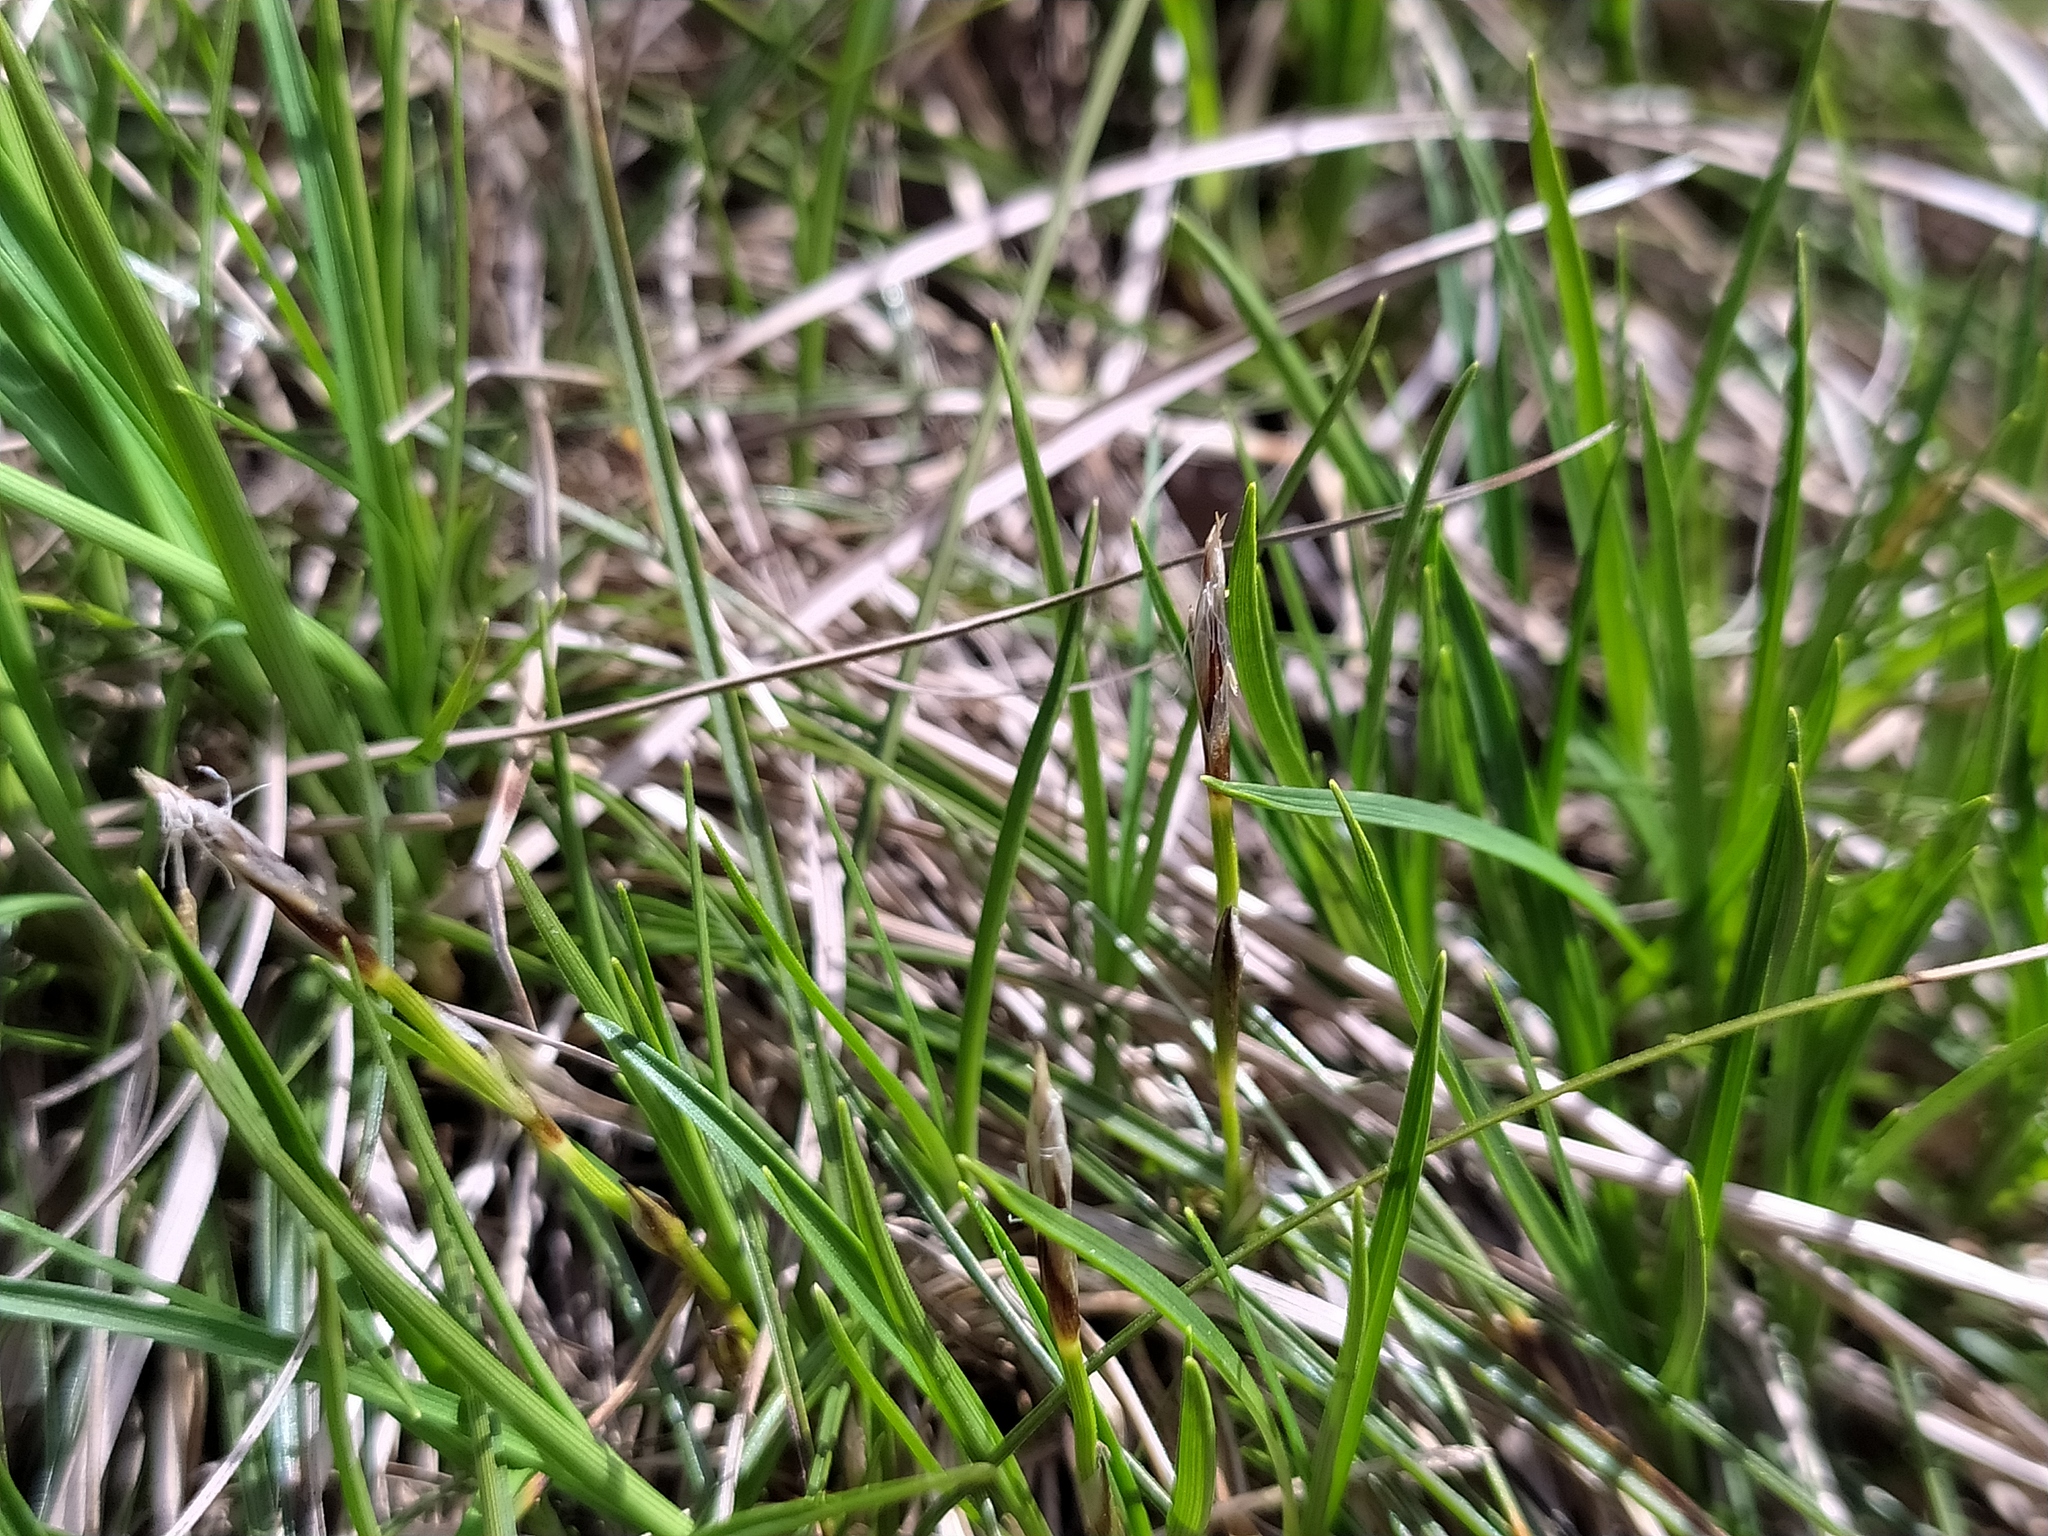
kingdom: Plantae
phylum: Tracheophyta
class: Liliopsida
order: Poales
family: Cyperaceae
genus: Carex
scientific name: Carex humilis
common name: Dwarf sedge
